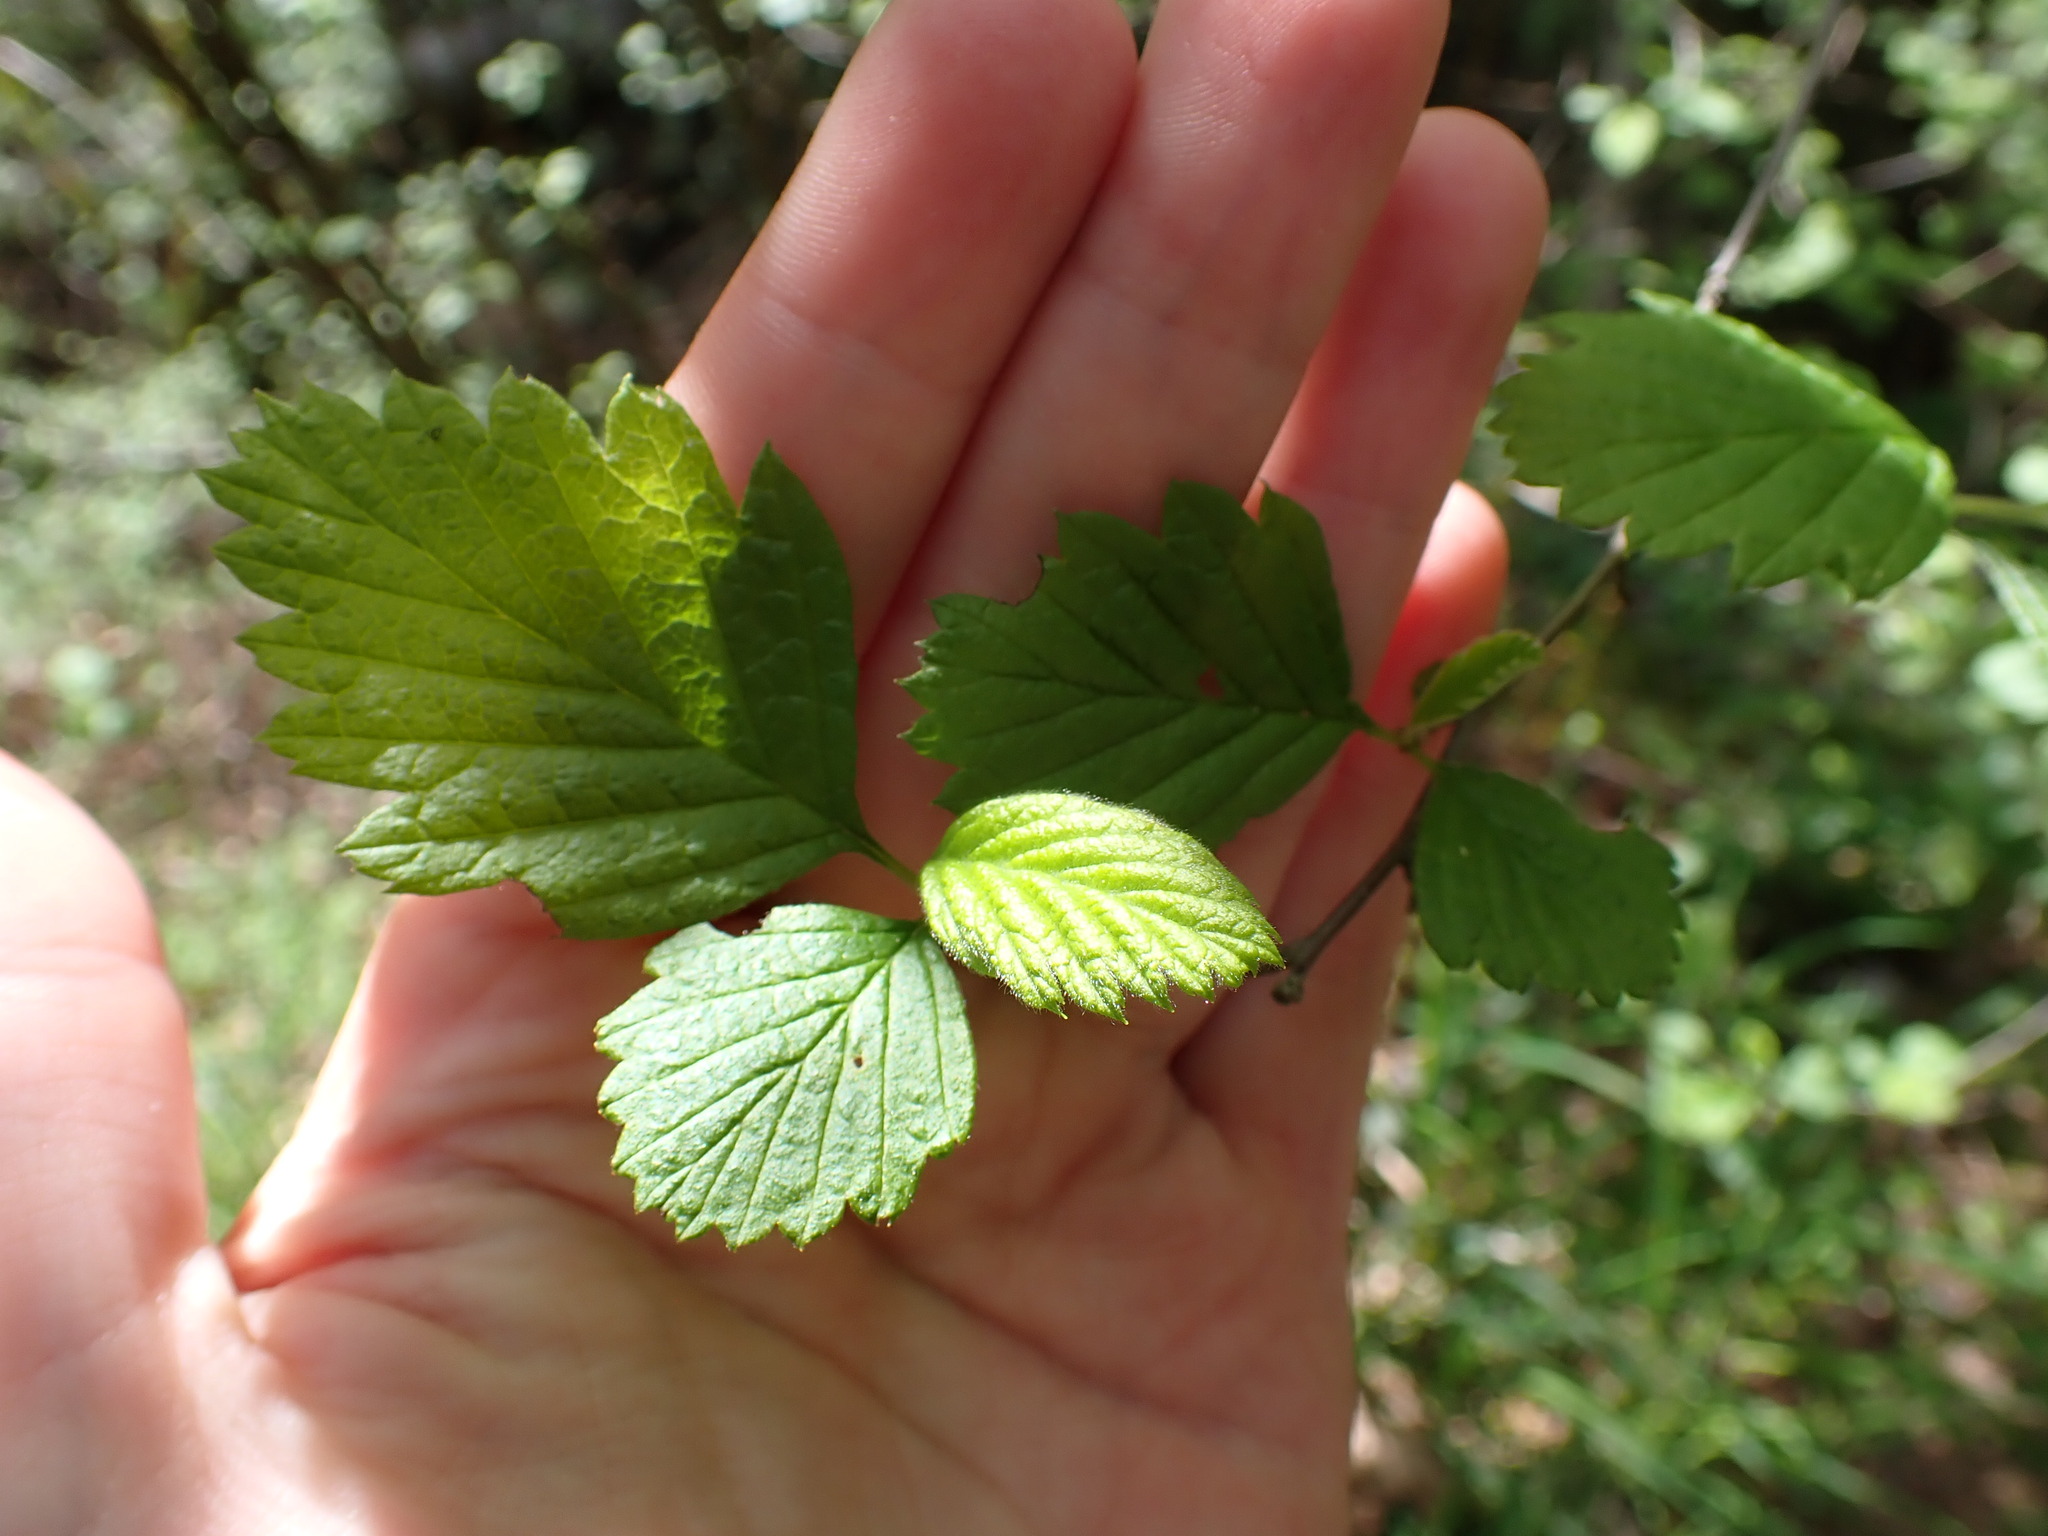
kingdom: Plantae
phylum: Tracheophyta
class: Magnoliopsida
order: Rosales
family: Rosaceae
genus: Holodiscus
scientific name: Holodiscus discolor
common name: Oceanspray
